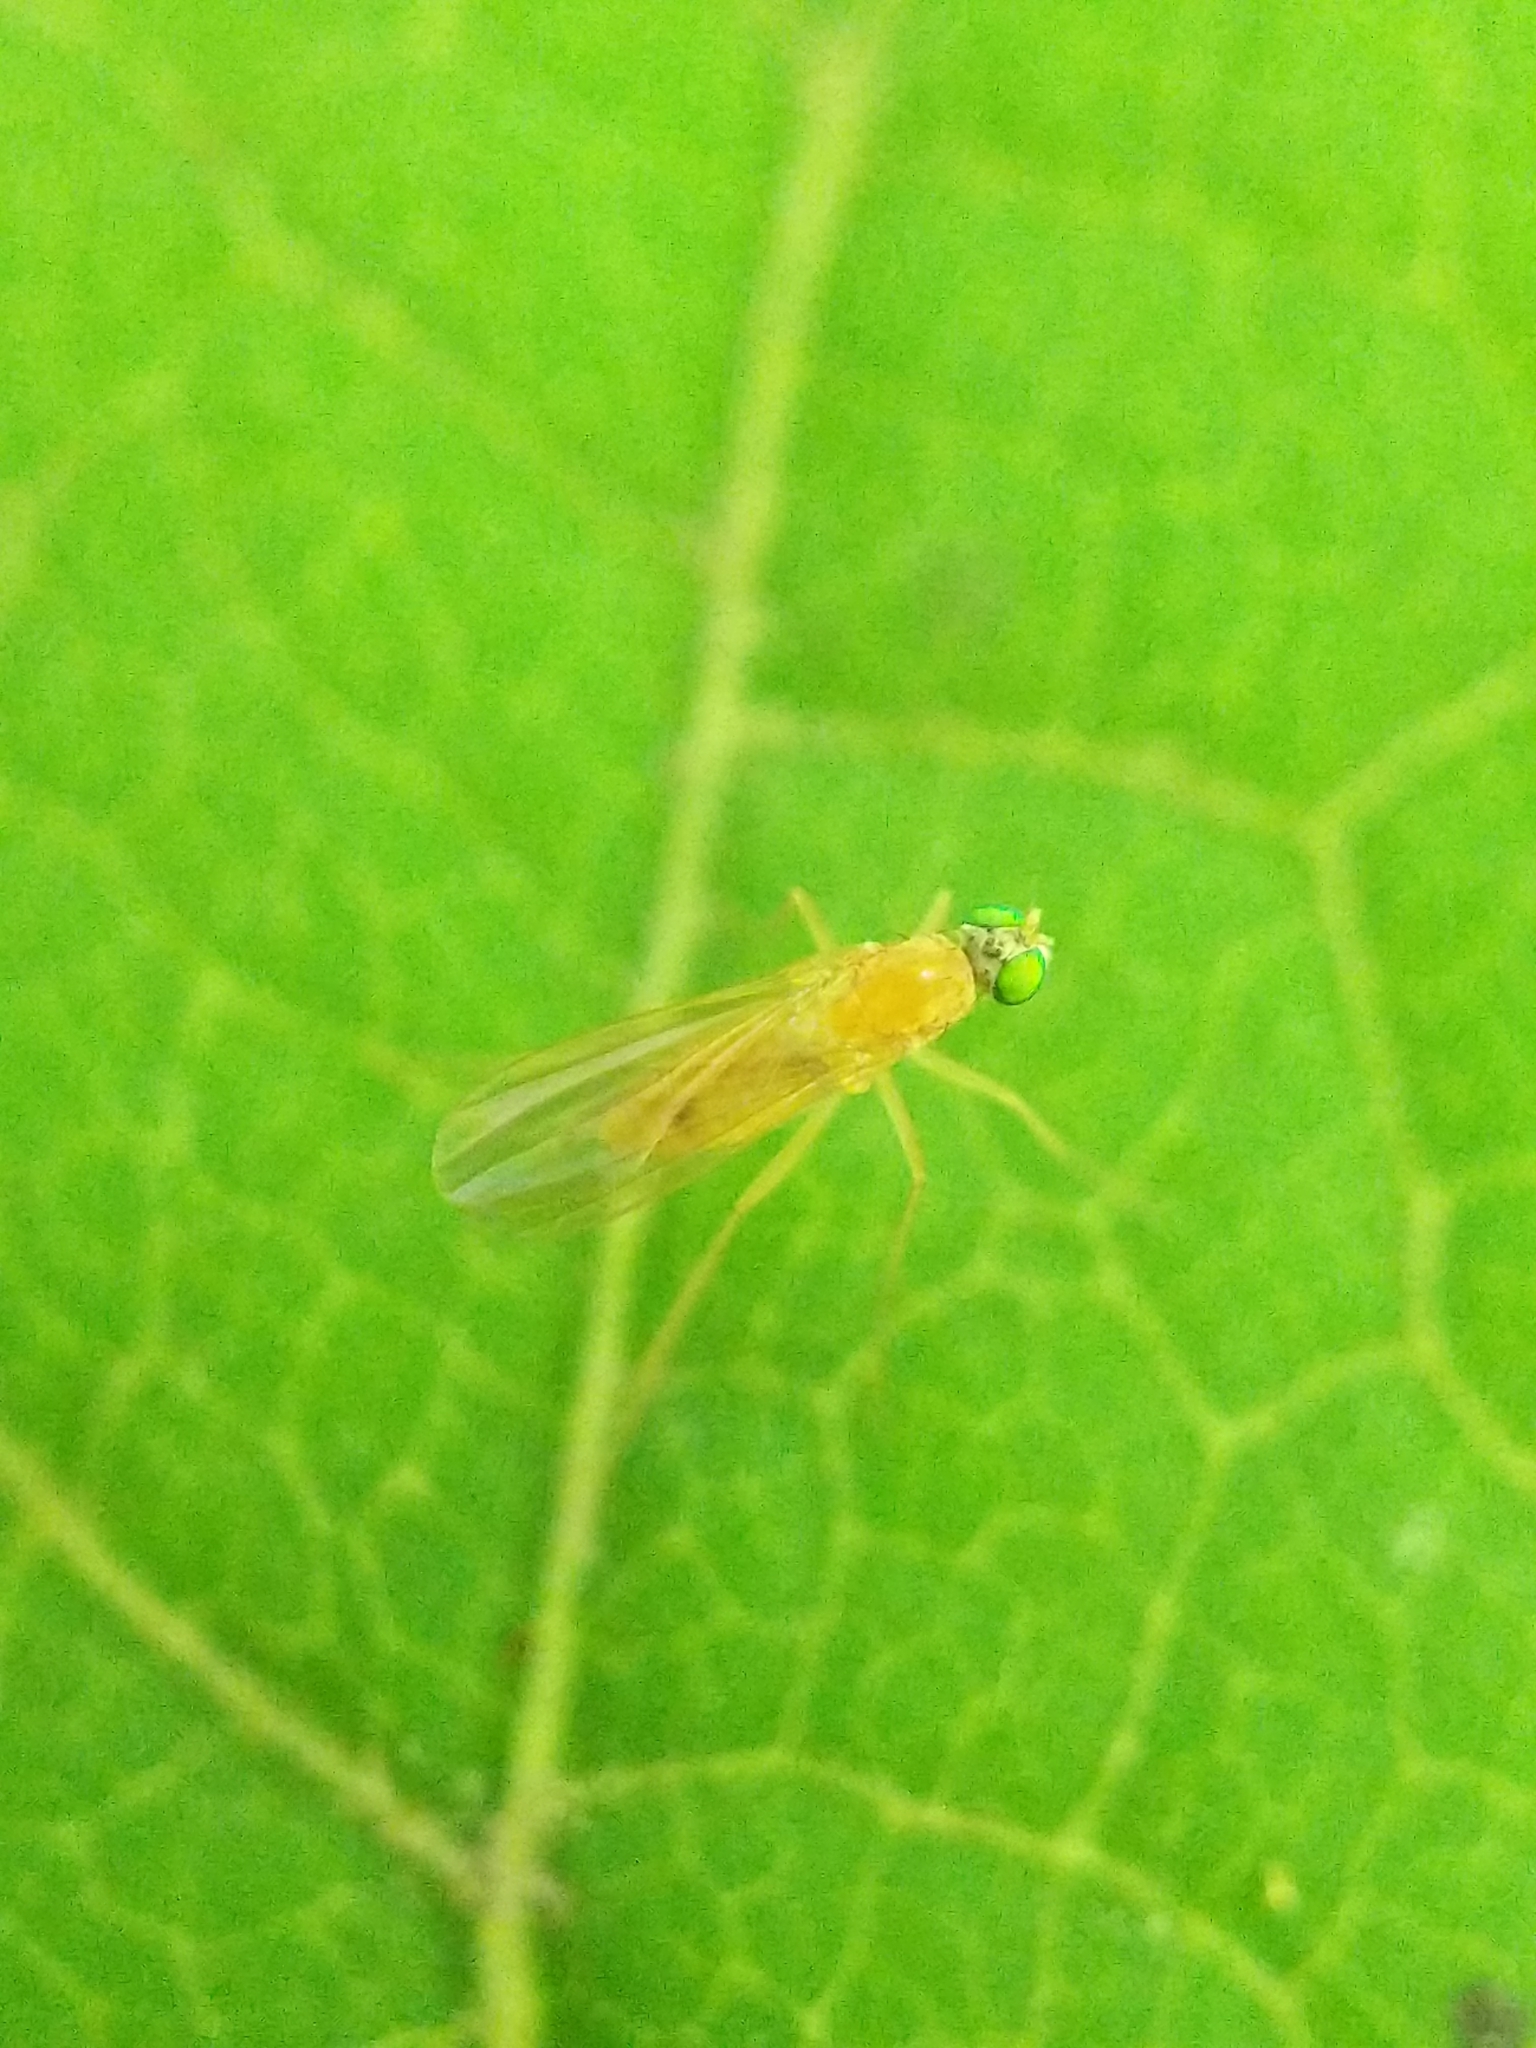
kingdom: Animalia
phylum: Arthropoda
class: Insecta
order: Diptera
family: Dolichopodidae
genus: Xanthochlorus
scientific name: Xanthochlorus helvinus
